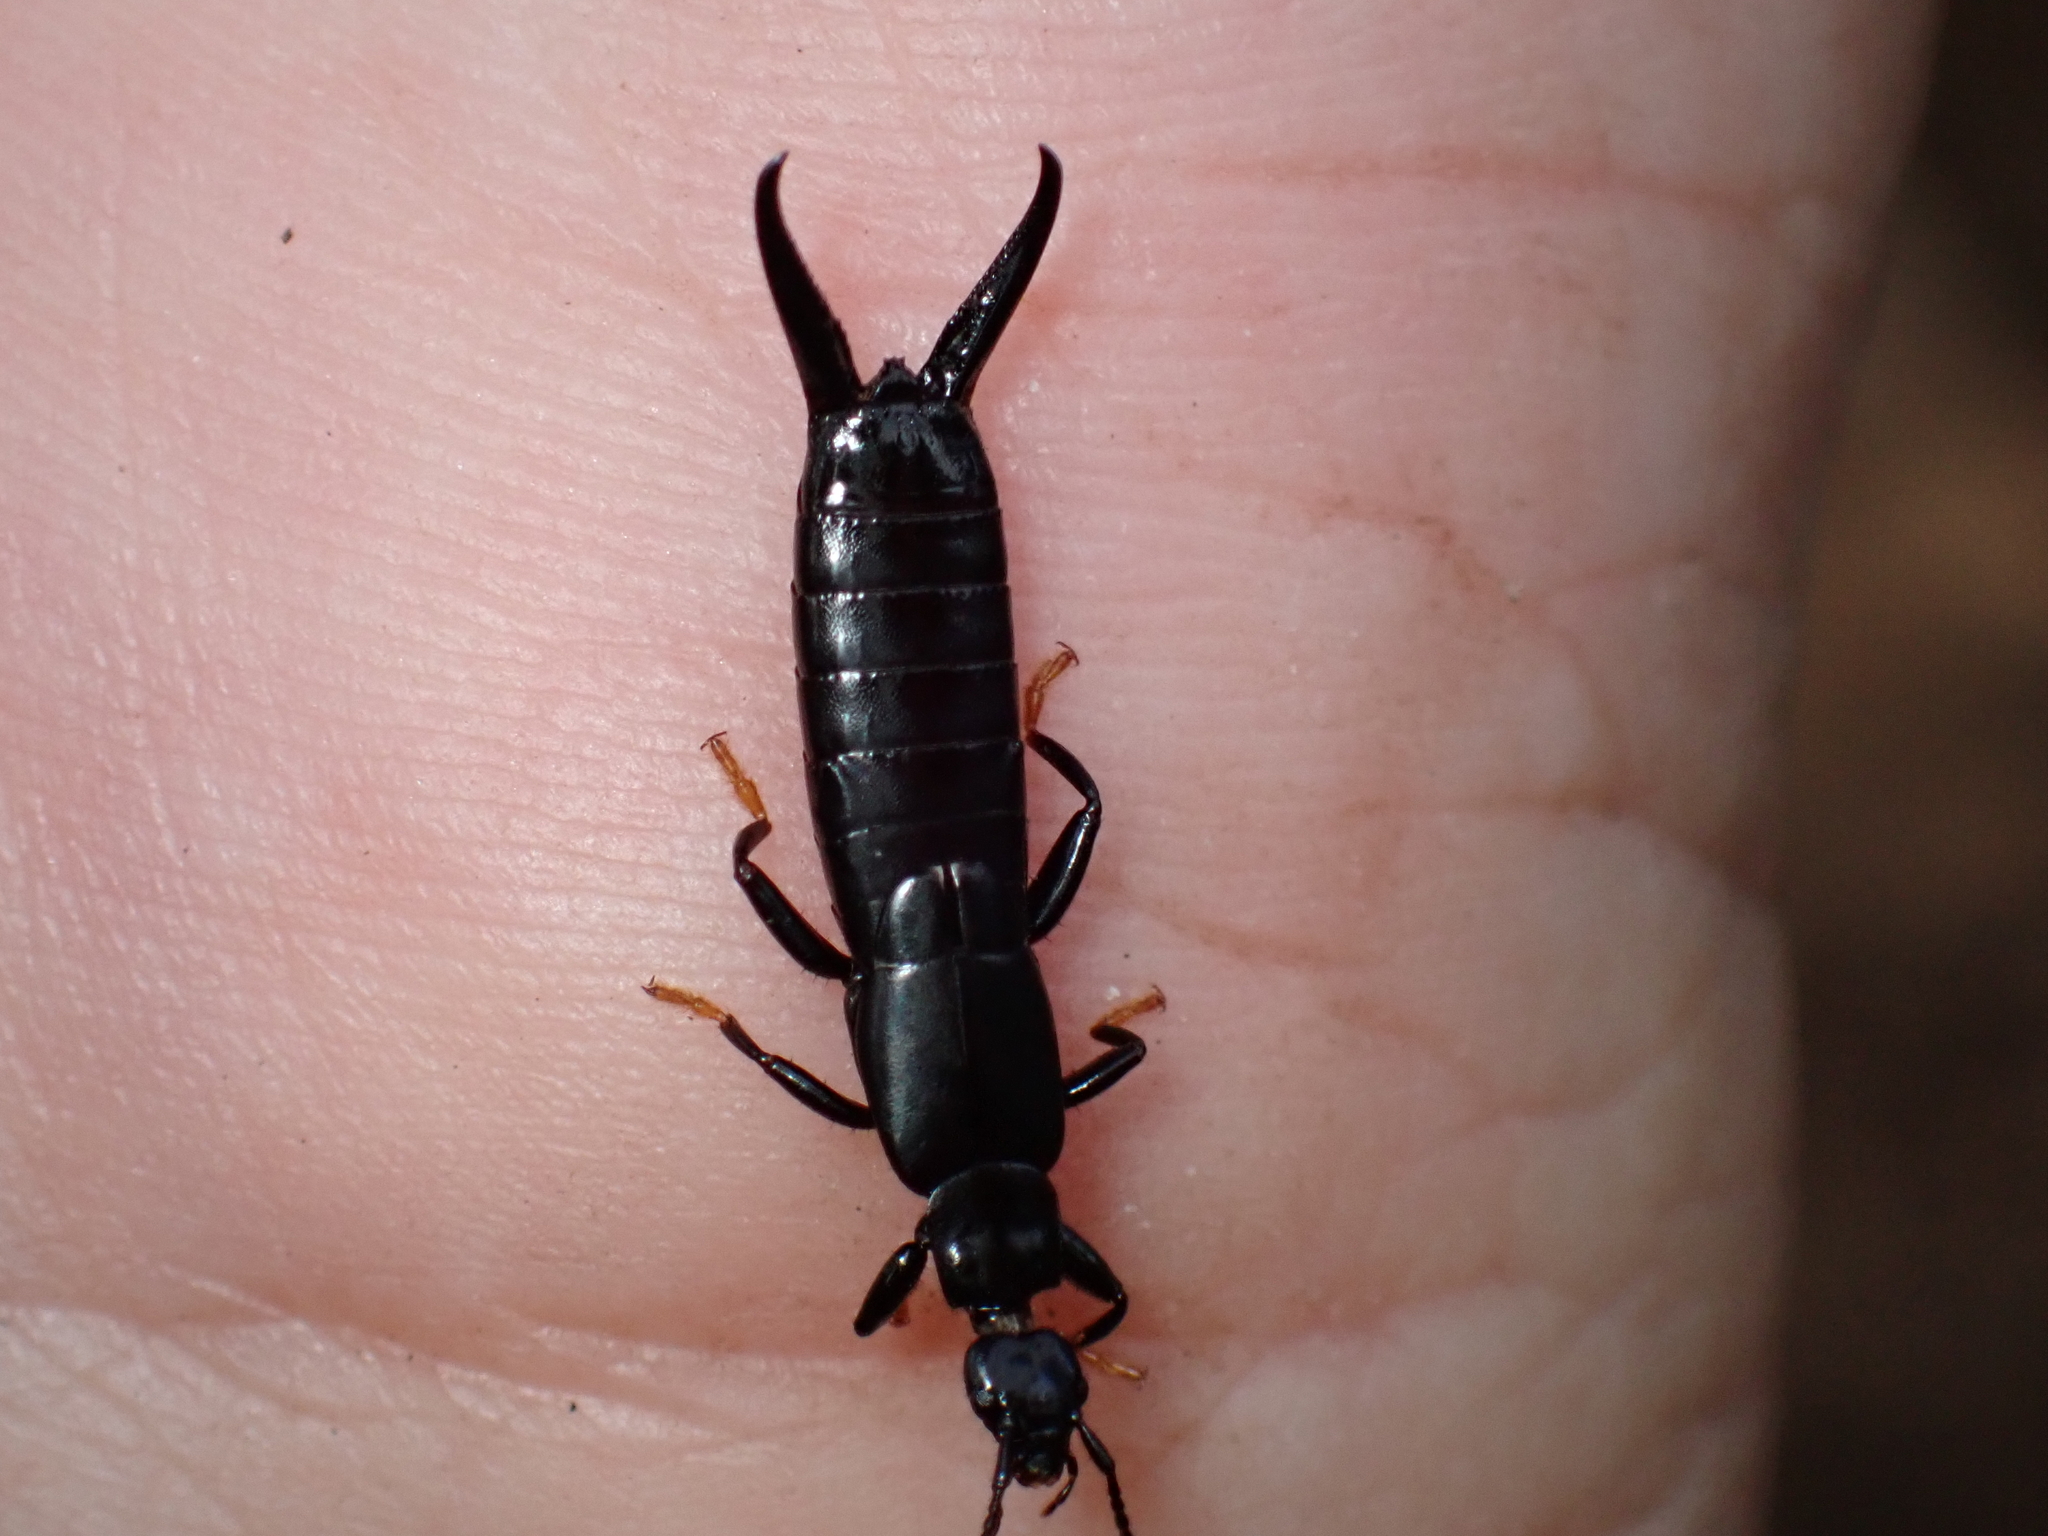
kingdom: Animalia
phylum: Arthropoda
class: Insecta
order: Dermaptera
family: Chelisochidae
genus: Chelisoches
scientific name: Chelisoches morio
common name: Black earwig
